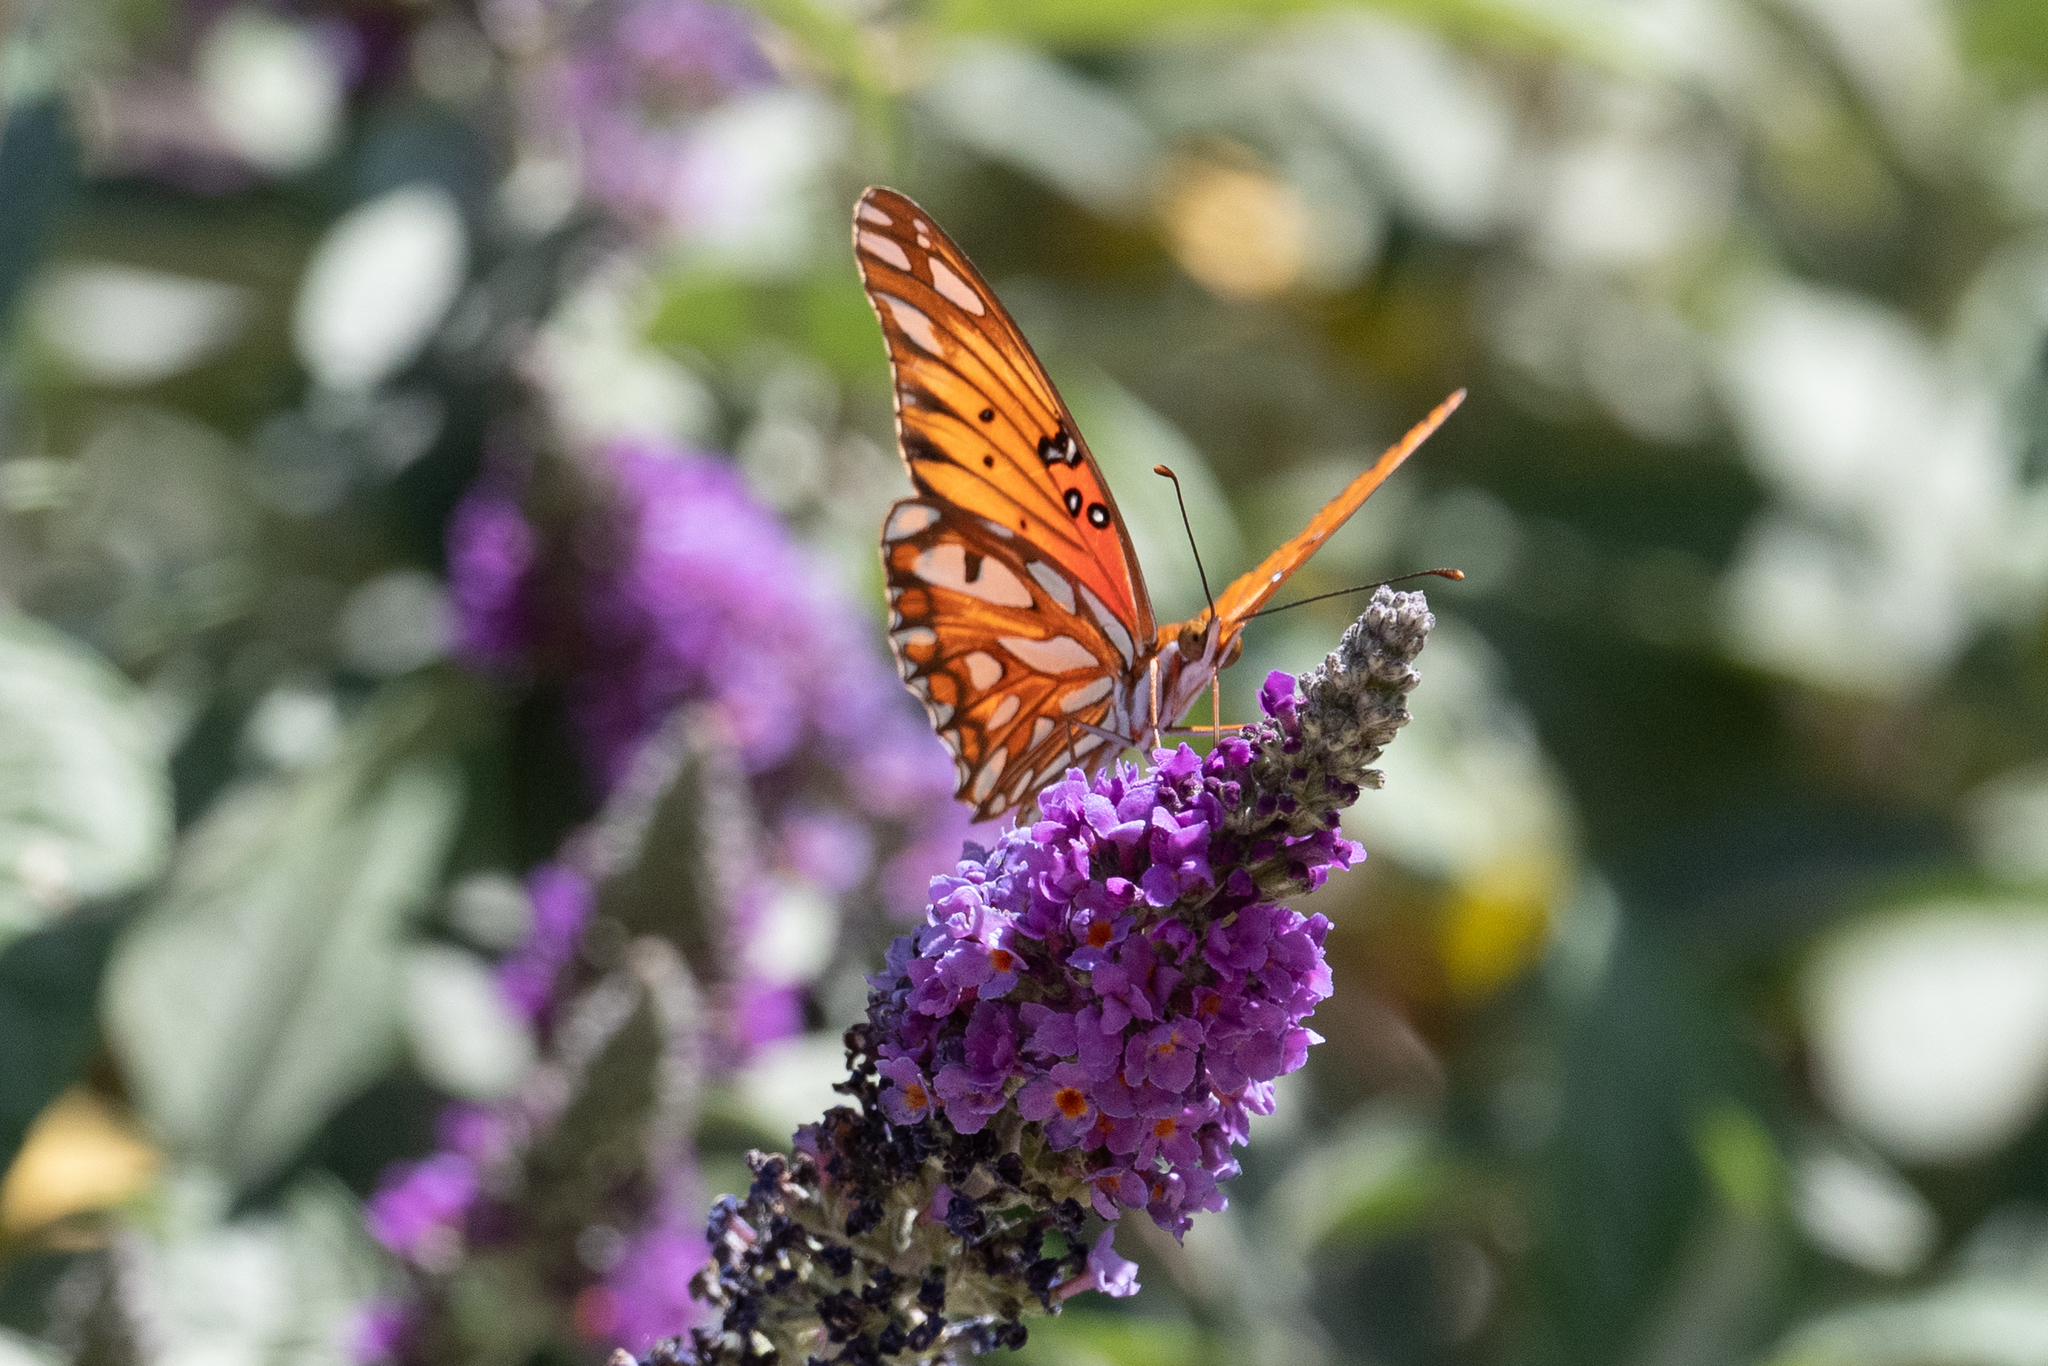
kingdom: Animalia
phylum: Arthropoda
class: Insecta
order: Lepidoptera
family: Nymphalidae
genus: Dione
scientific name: Dione vanillae
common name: Gulf fritillary
